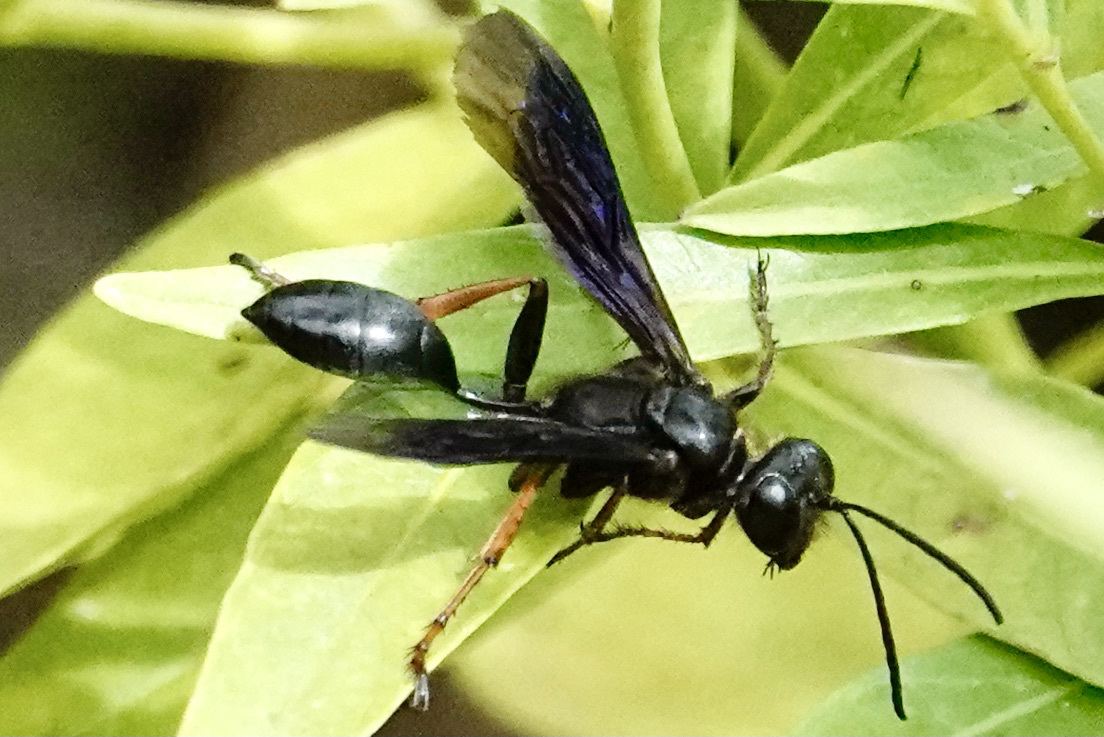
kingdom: Animalia
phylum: Arthropoda
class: Insecta
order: Hymenoptera
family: Sphecidae
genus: Isodontia
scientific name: Isodontia auripes
